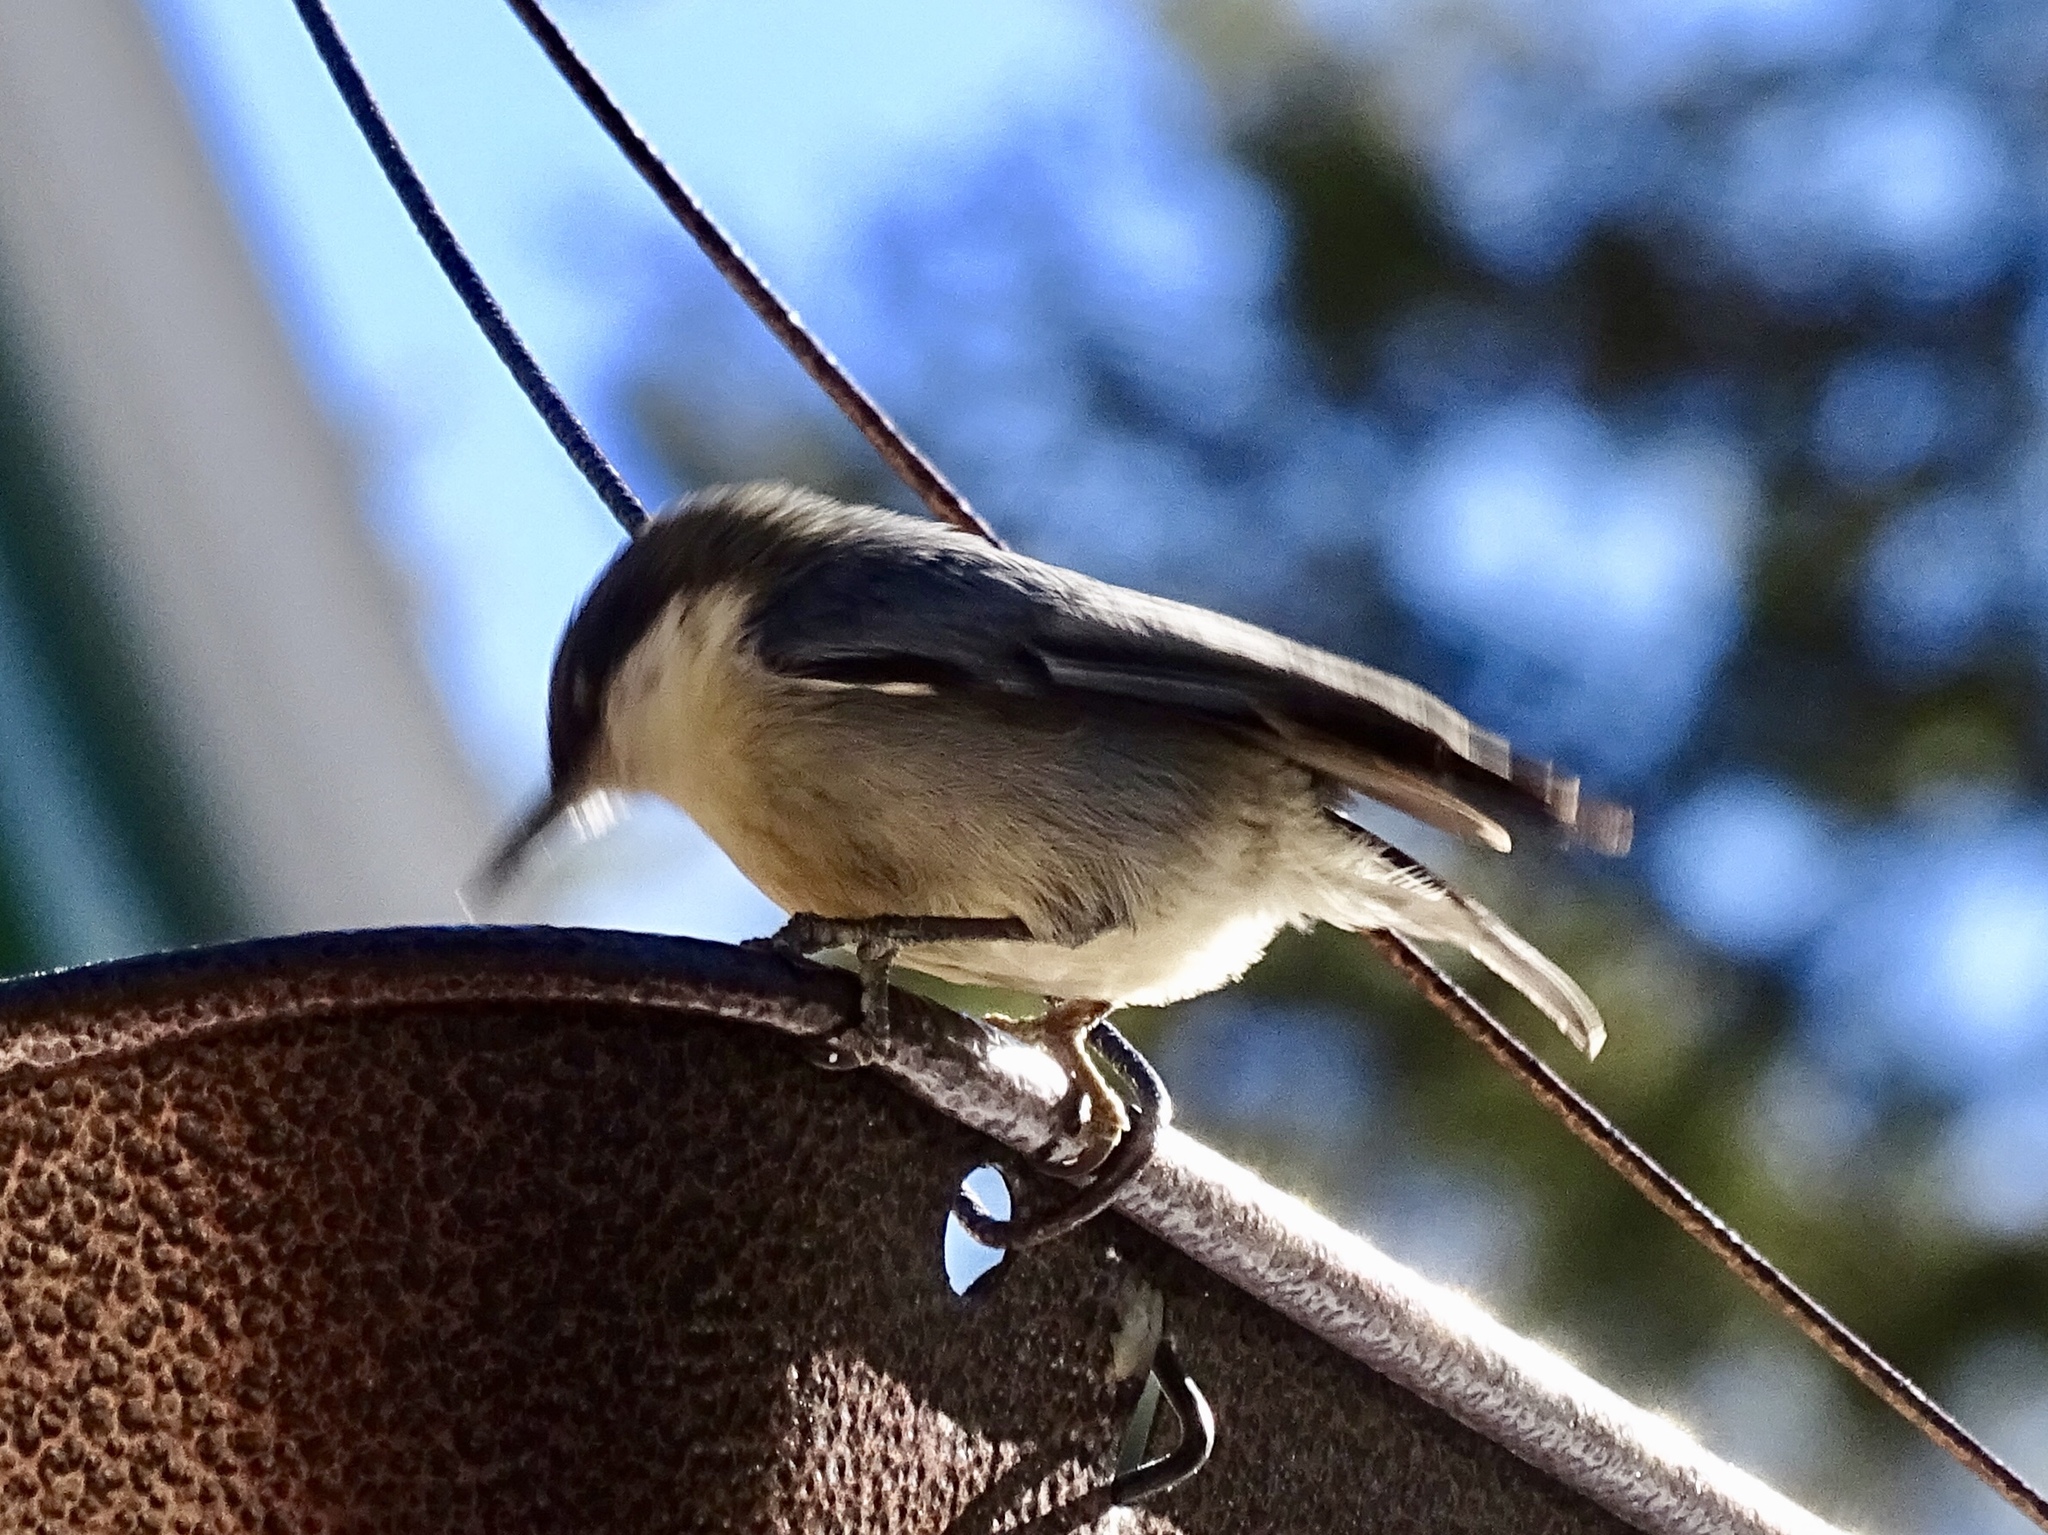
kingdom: Animalia
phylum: Chordata
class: Aves
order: Passeriformes
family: Sittidae
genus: Sitta
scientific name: Sitta pygmaea
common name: Pygmy nuthatch
